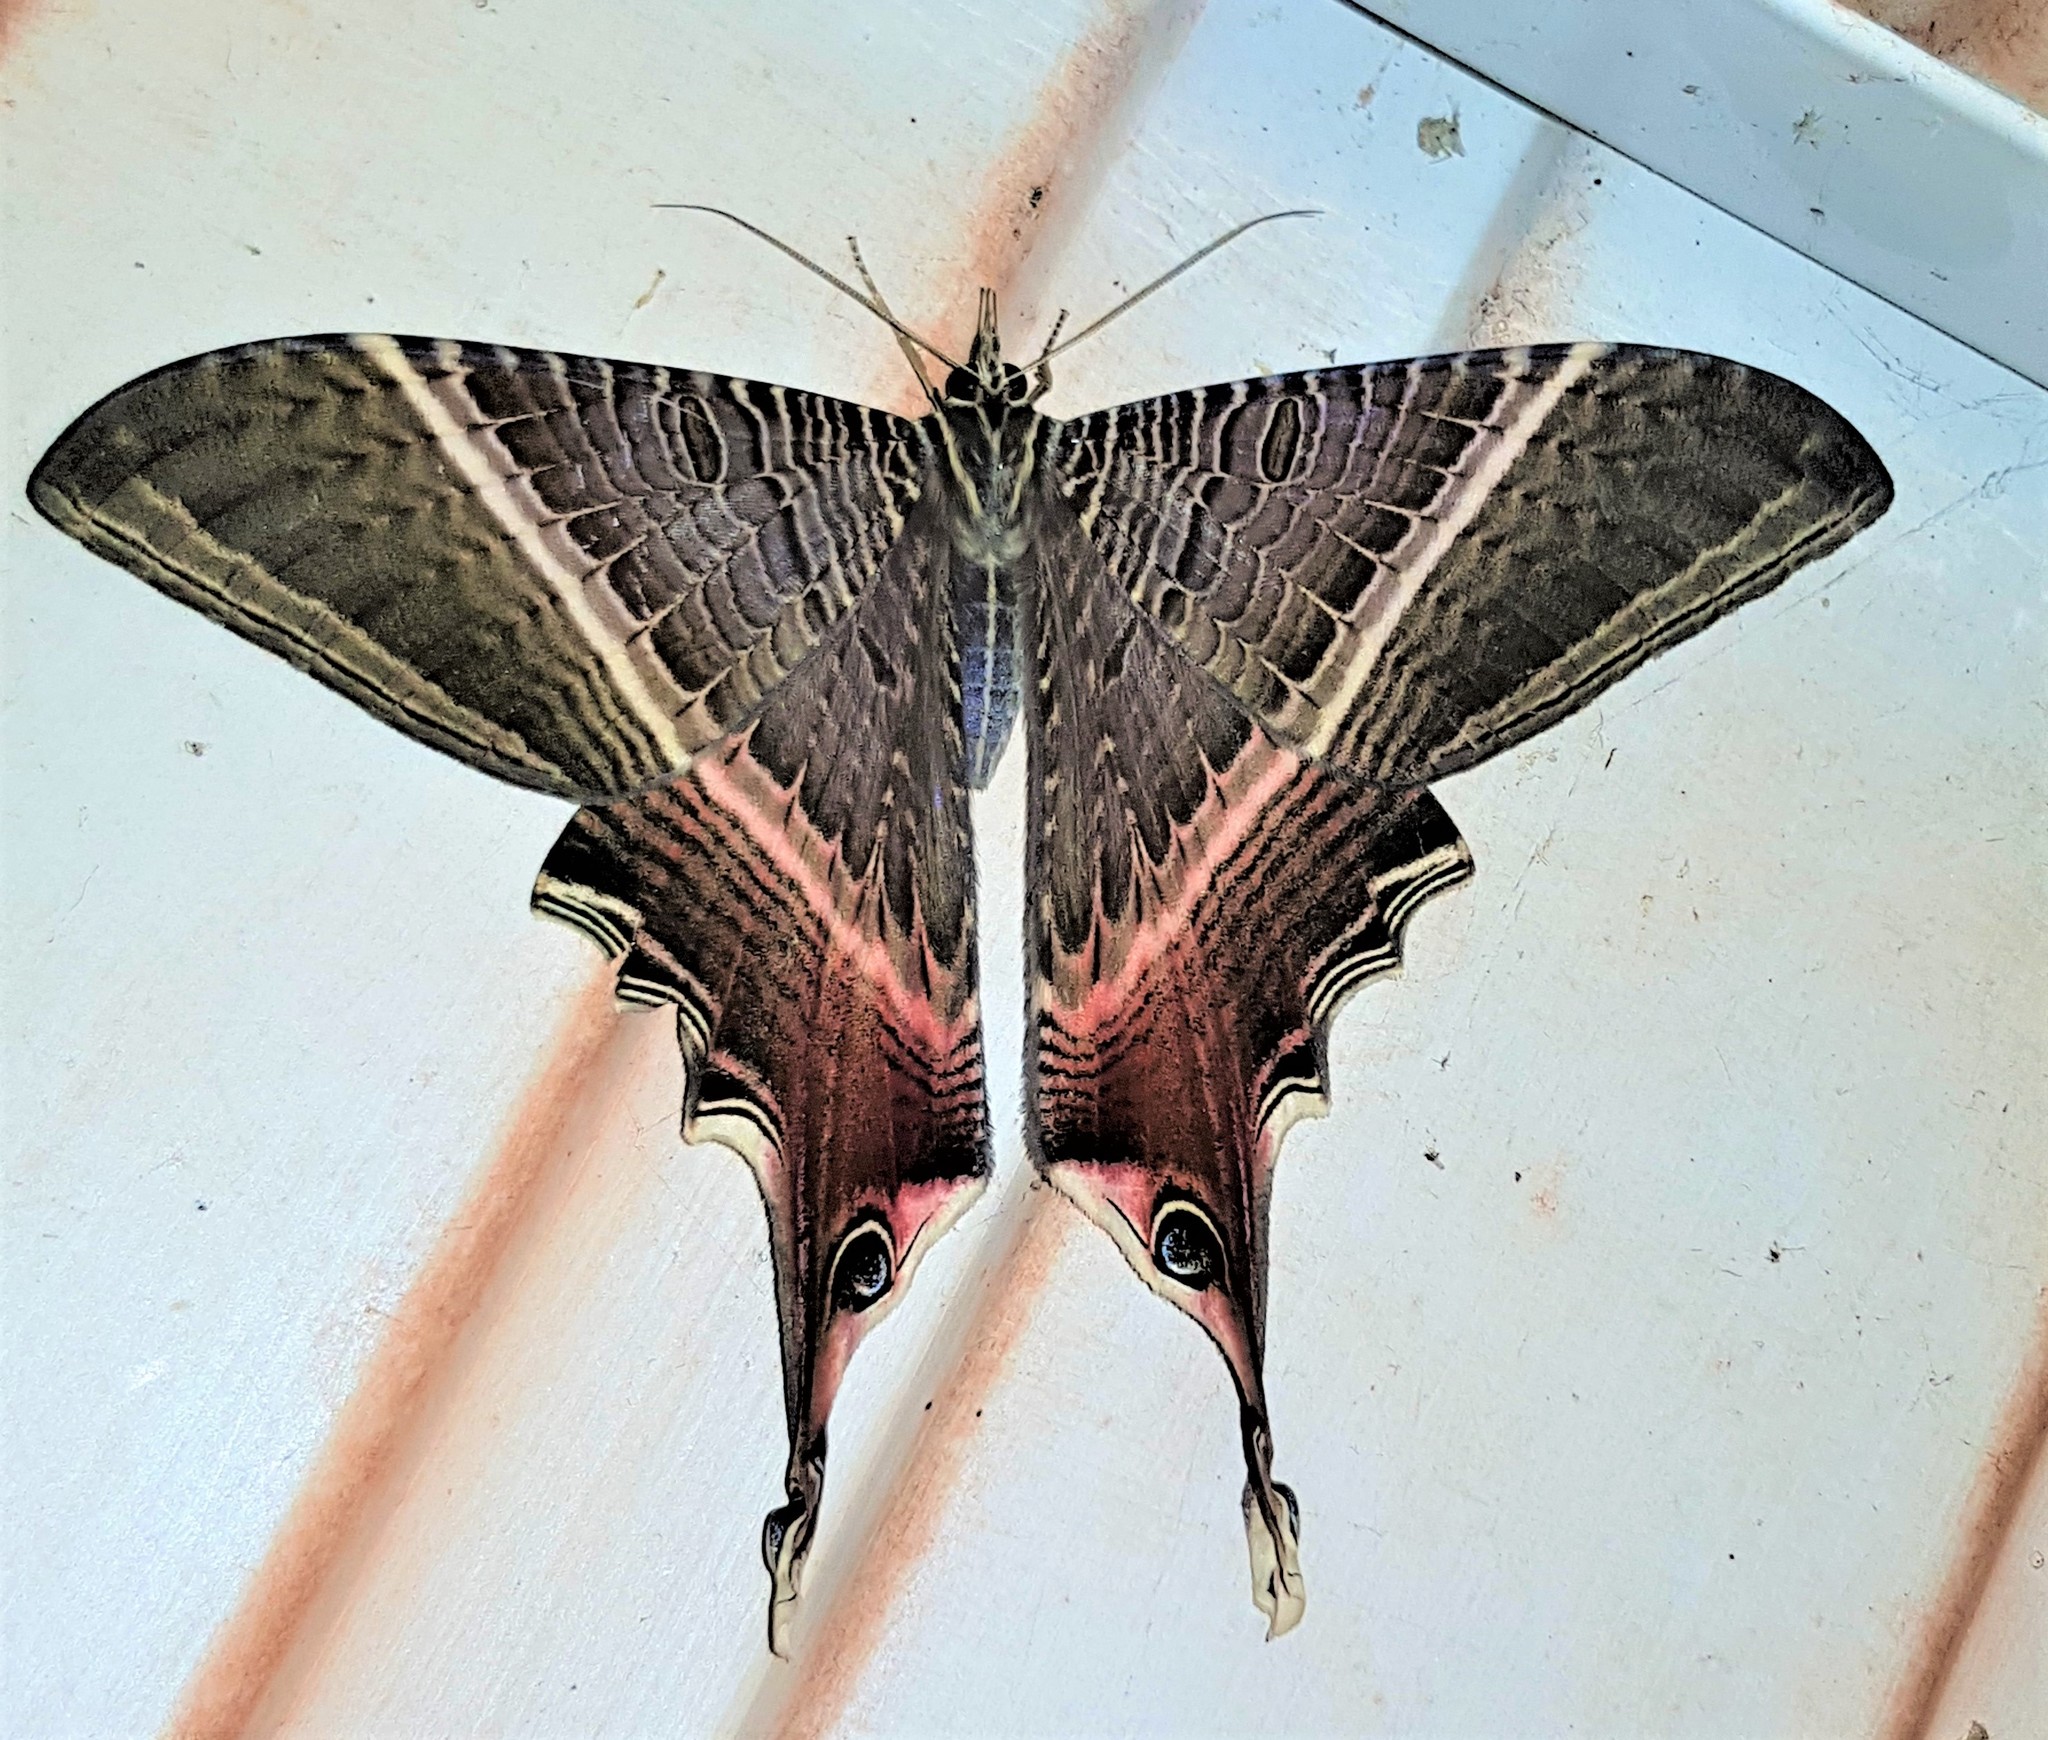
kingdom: Animalia
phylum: Arthropoda
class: Insecta
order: Lepidoptera
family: Sematuridae
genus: Nothus
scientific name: Nothus lunus
